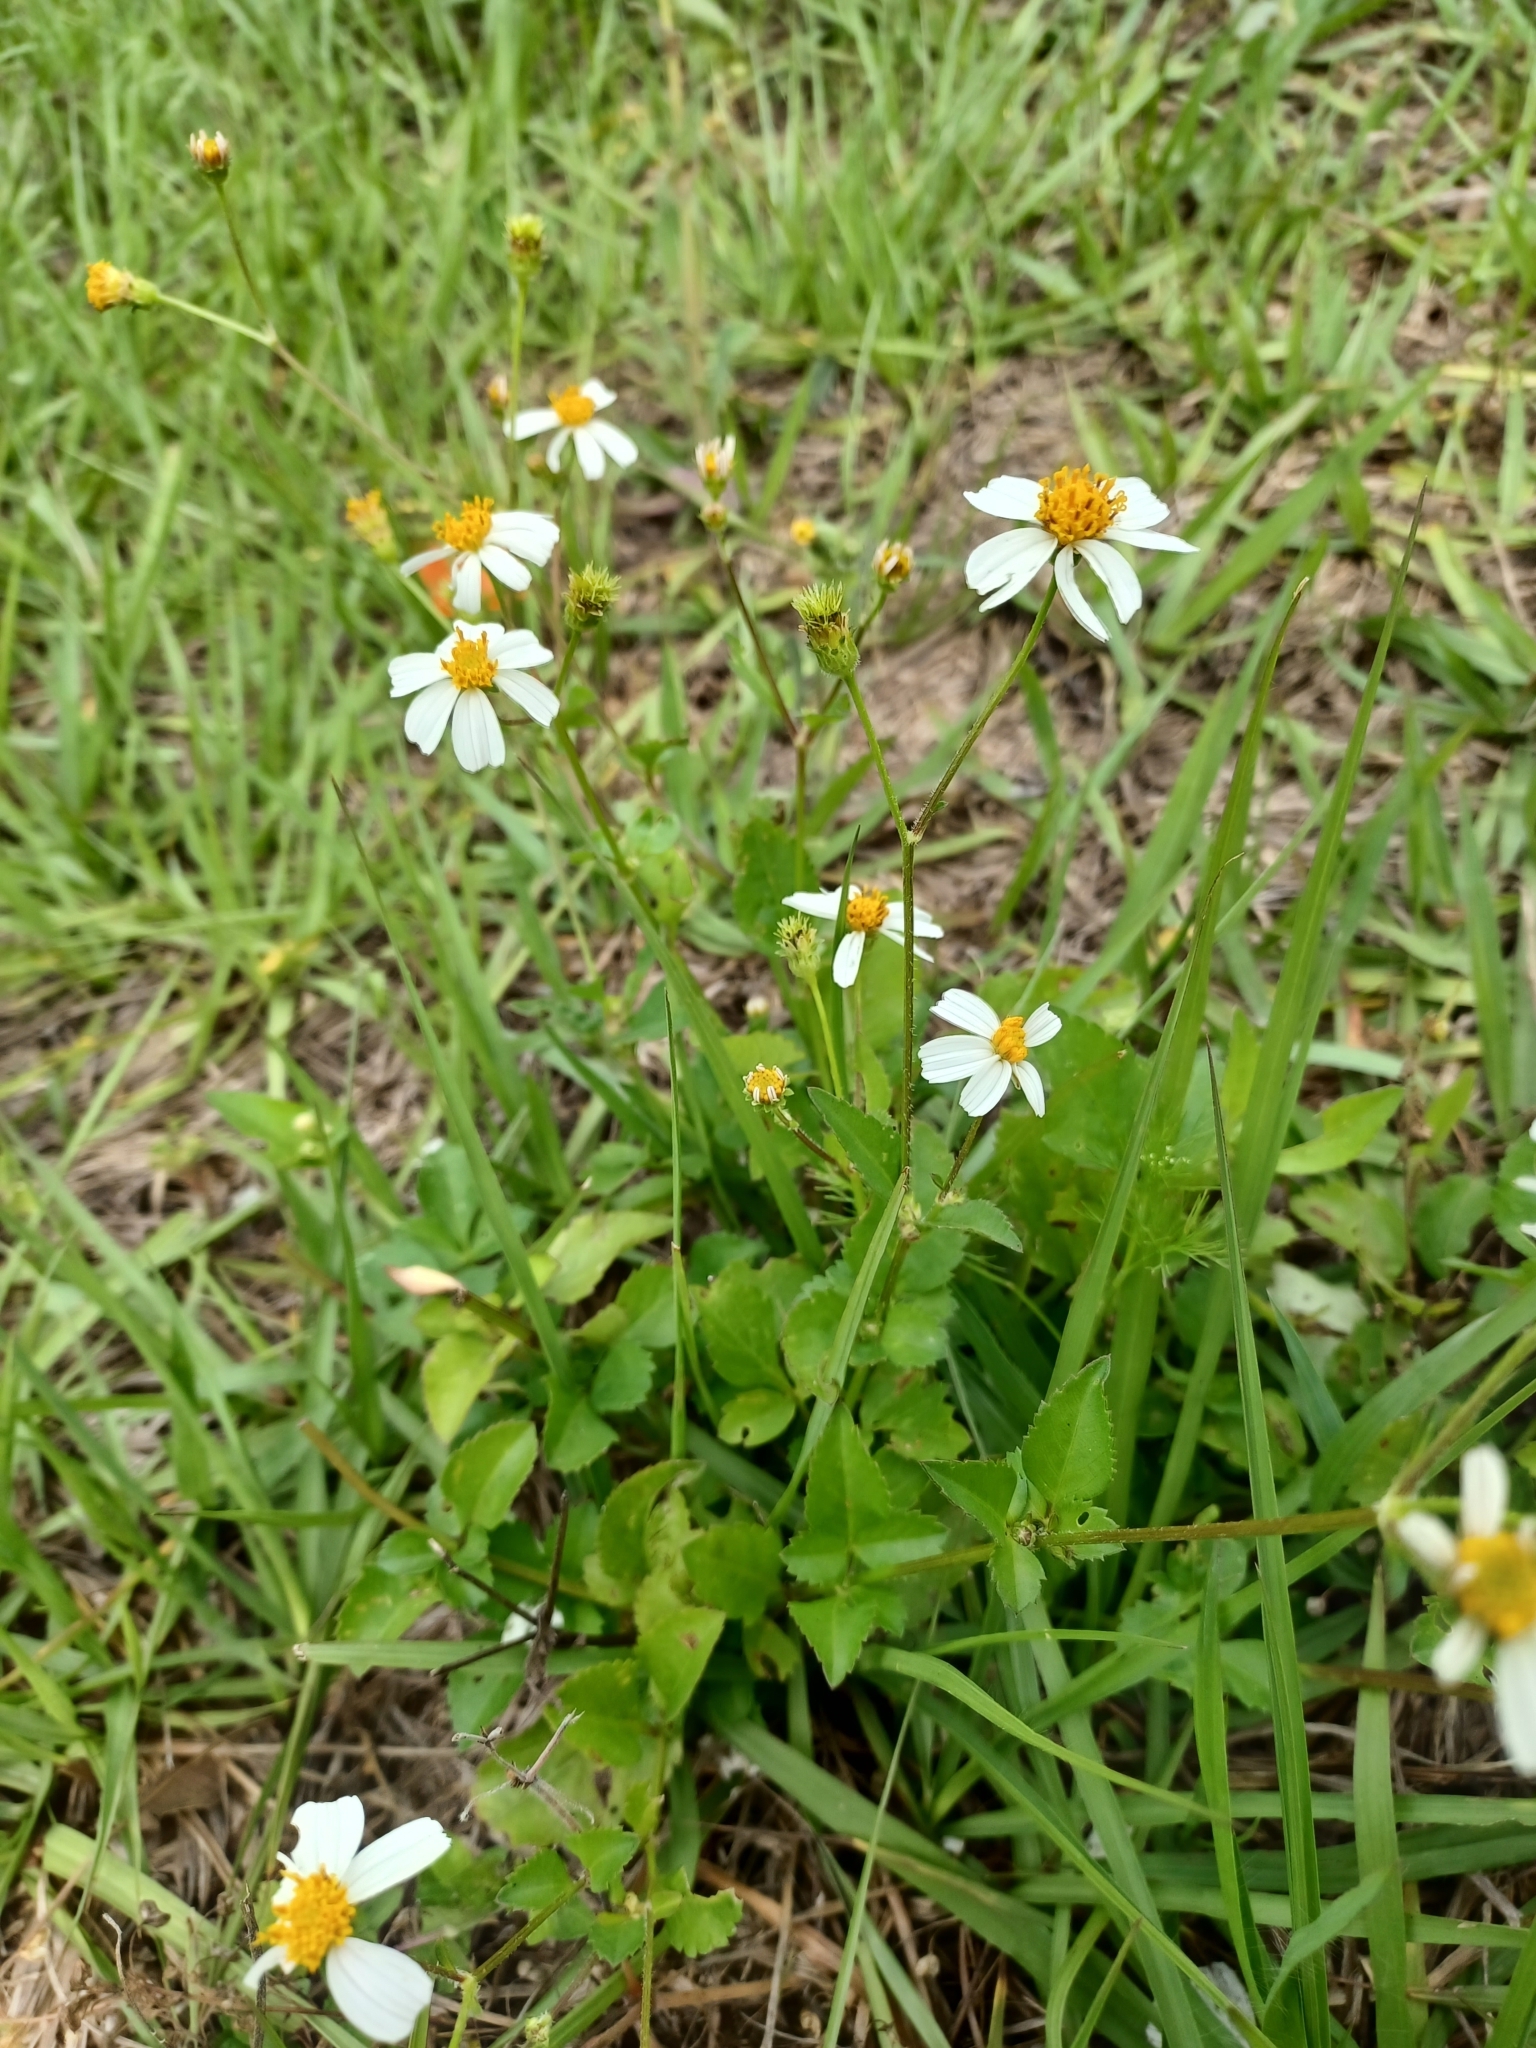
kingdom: Plantae
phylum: Tracheophyta
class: Magnoliopsida
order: Asterales
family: Asteraceae
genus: Bidens
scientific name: Bidens alba
